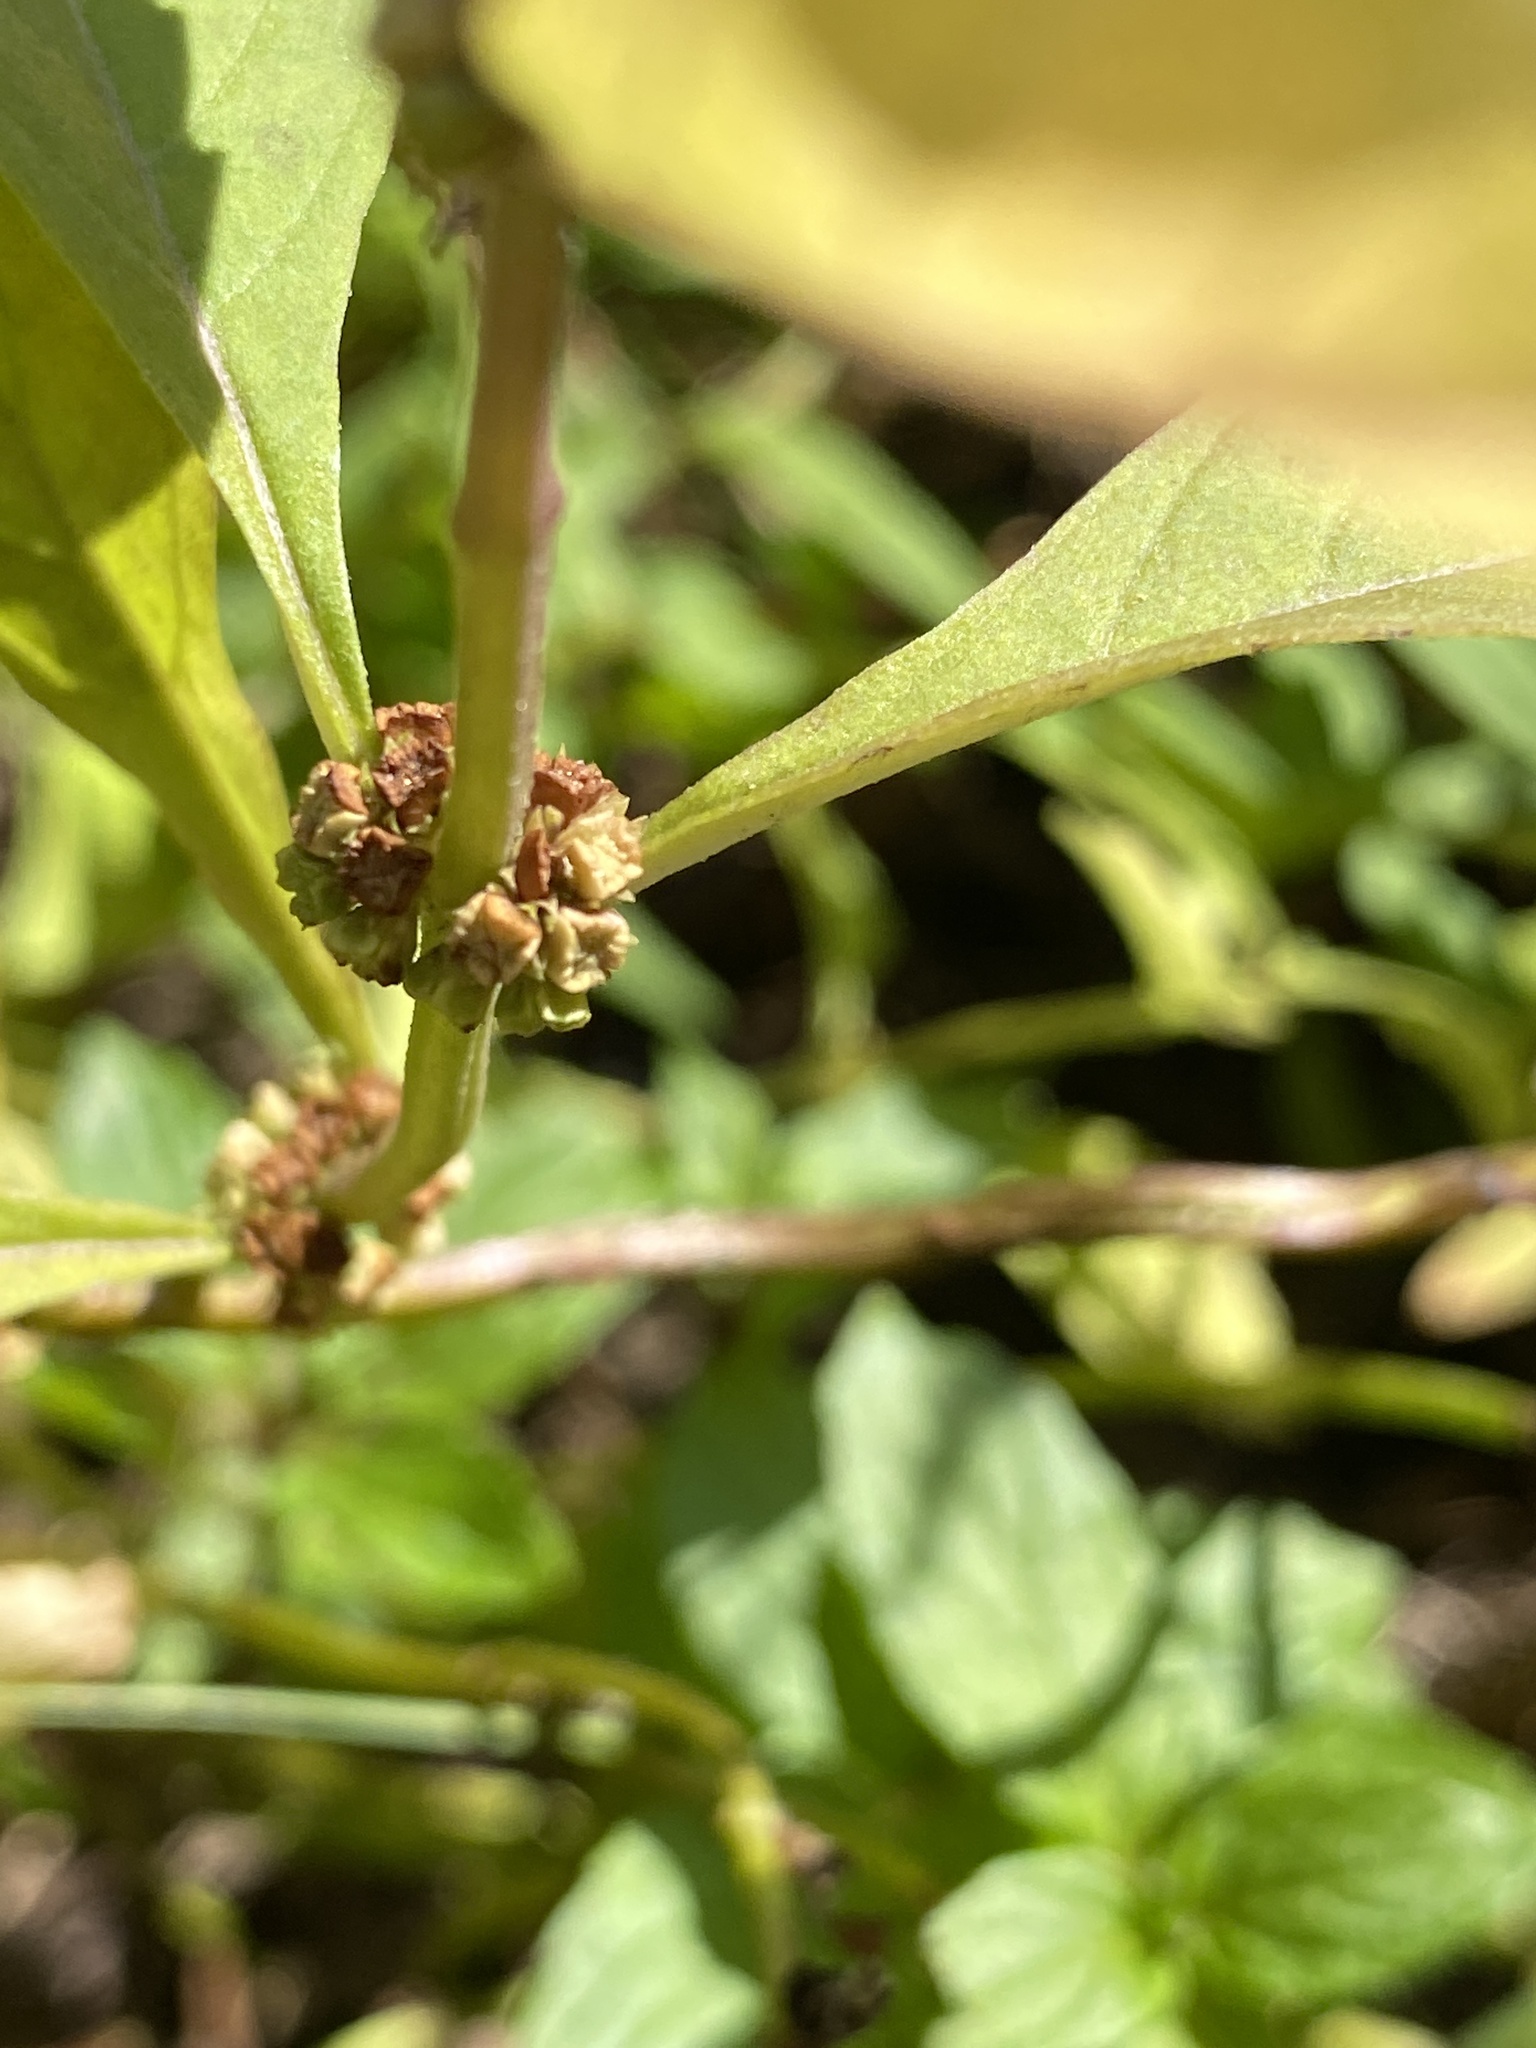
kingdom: Plantae
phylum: Tracheophyta
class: Magnoliopsida
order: Lamiales
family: Lamiaceae
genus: Lycopus
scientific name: Lycopus virginicus
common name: Bugleweed
